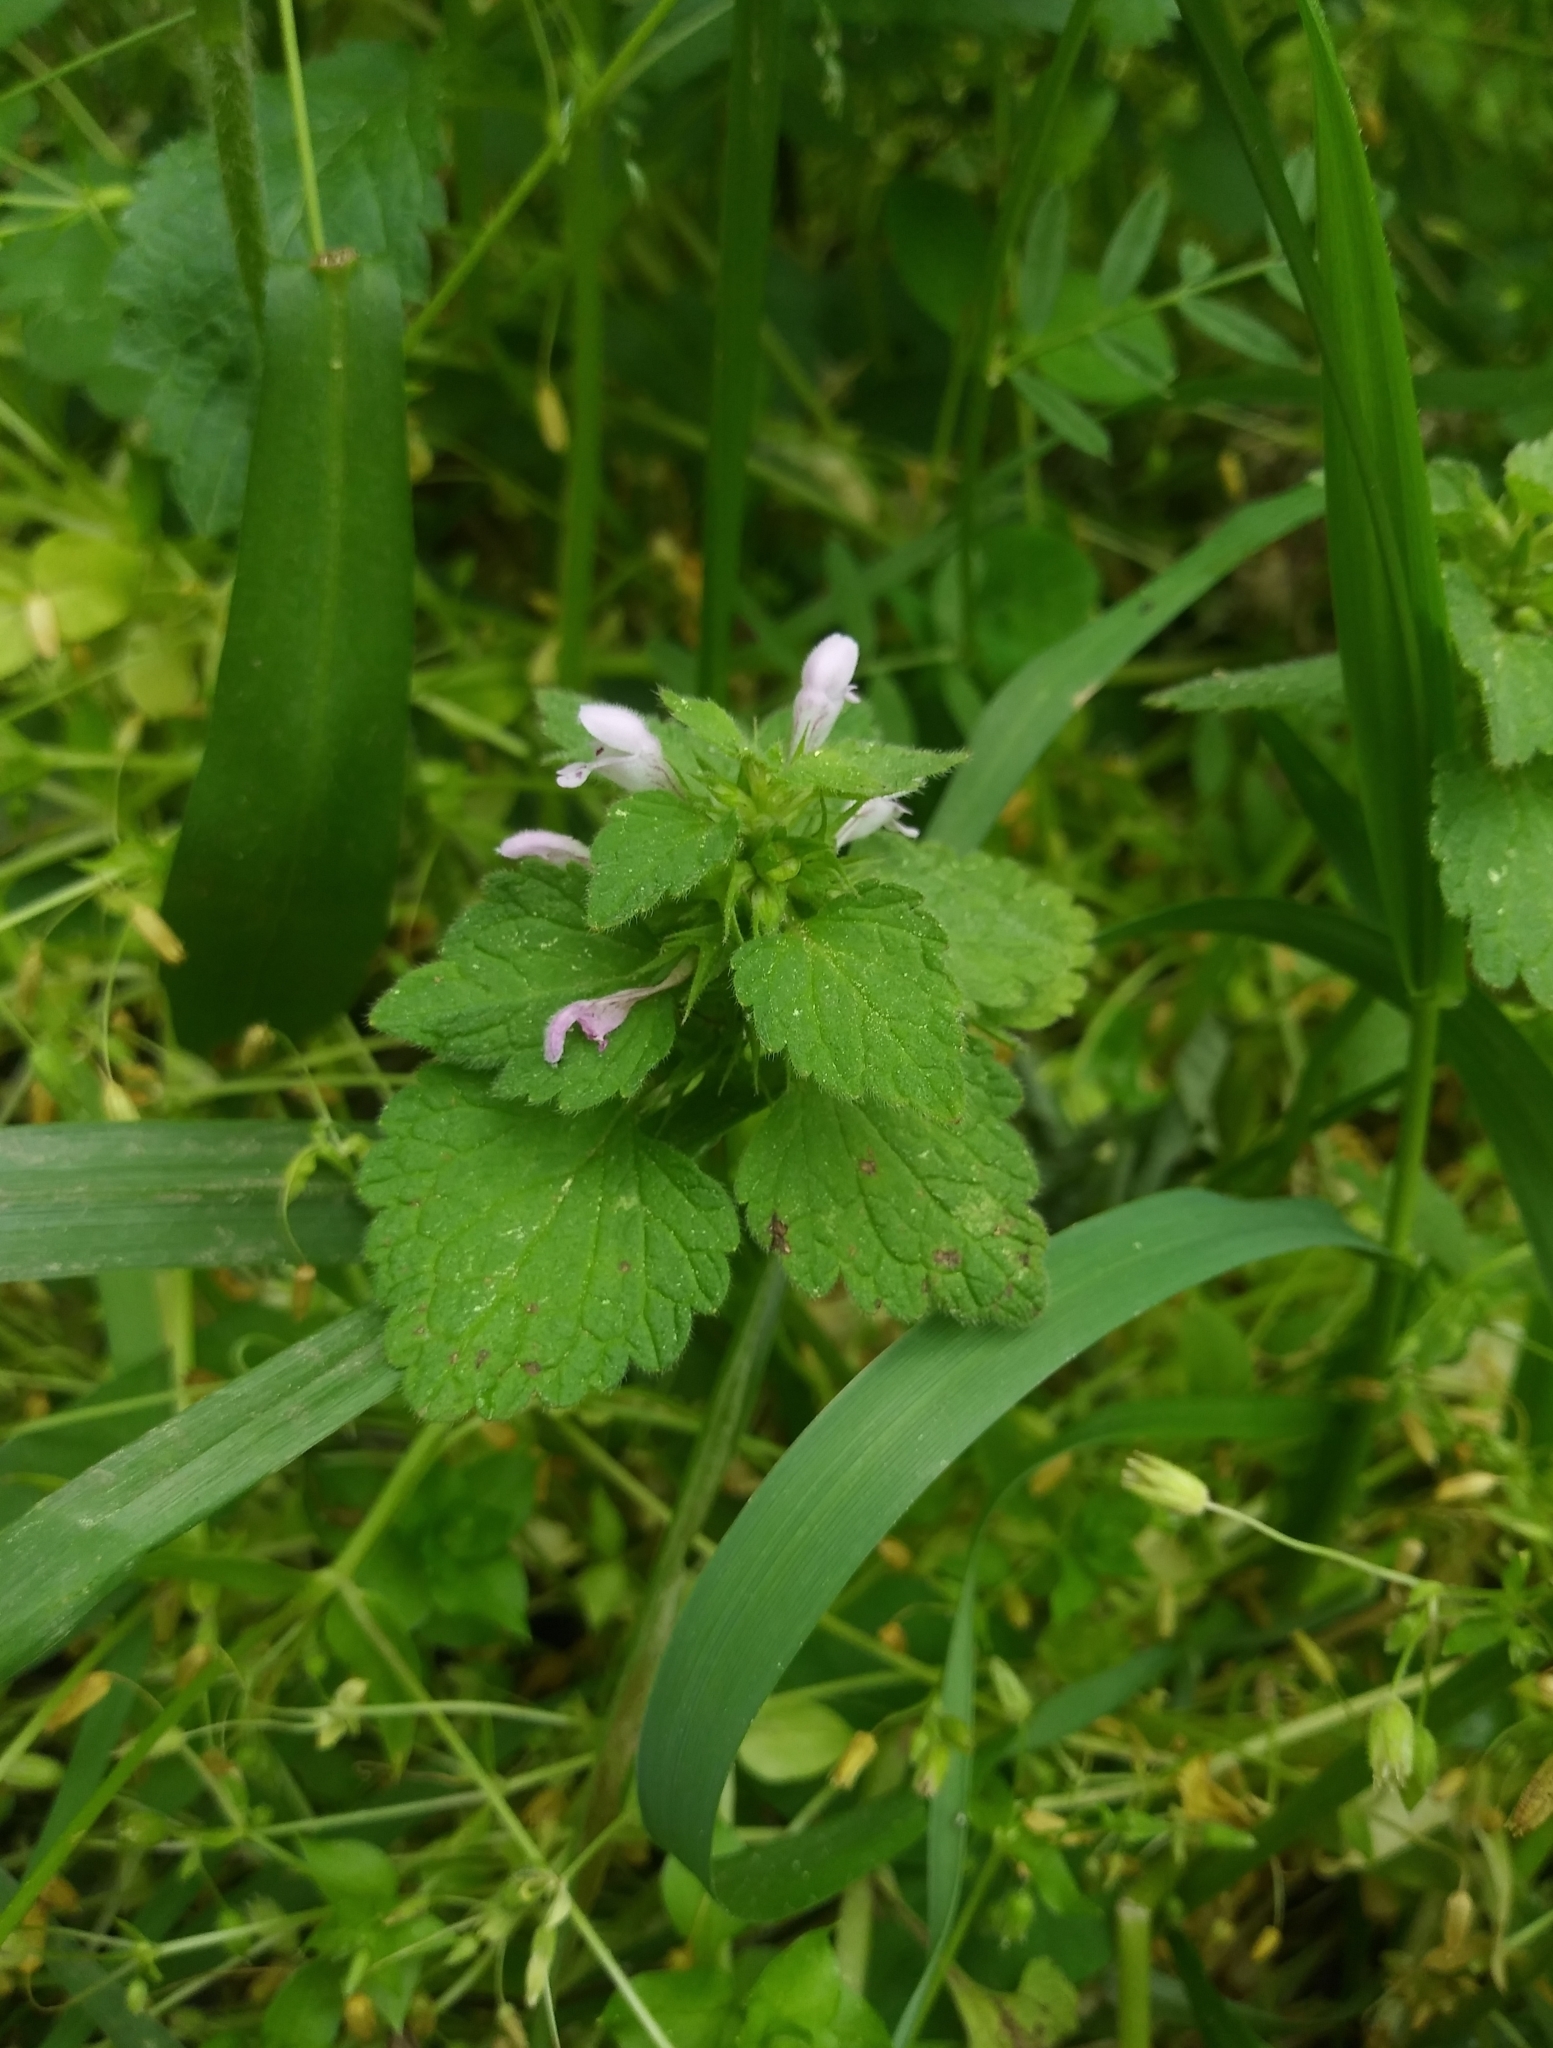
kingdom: Plantae
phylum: Tracheophyta
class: Magnoliopsida
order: Lamiales
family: Lamiaceae
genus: Lamium
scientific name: Lamium purpureum
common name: Red dead-nettle
